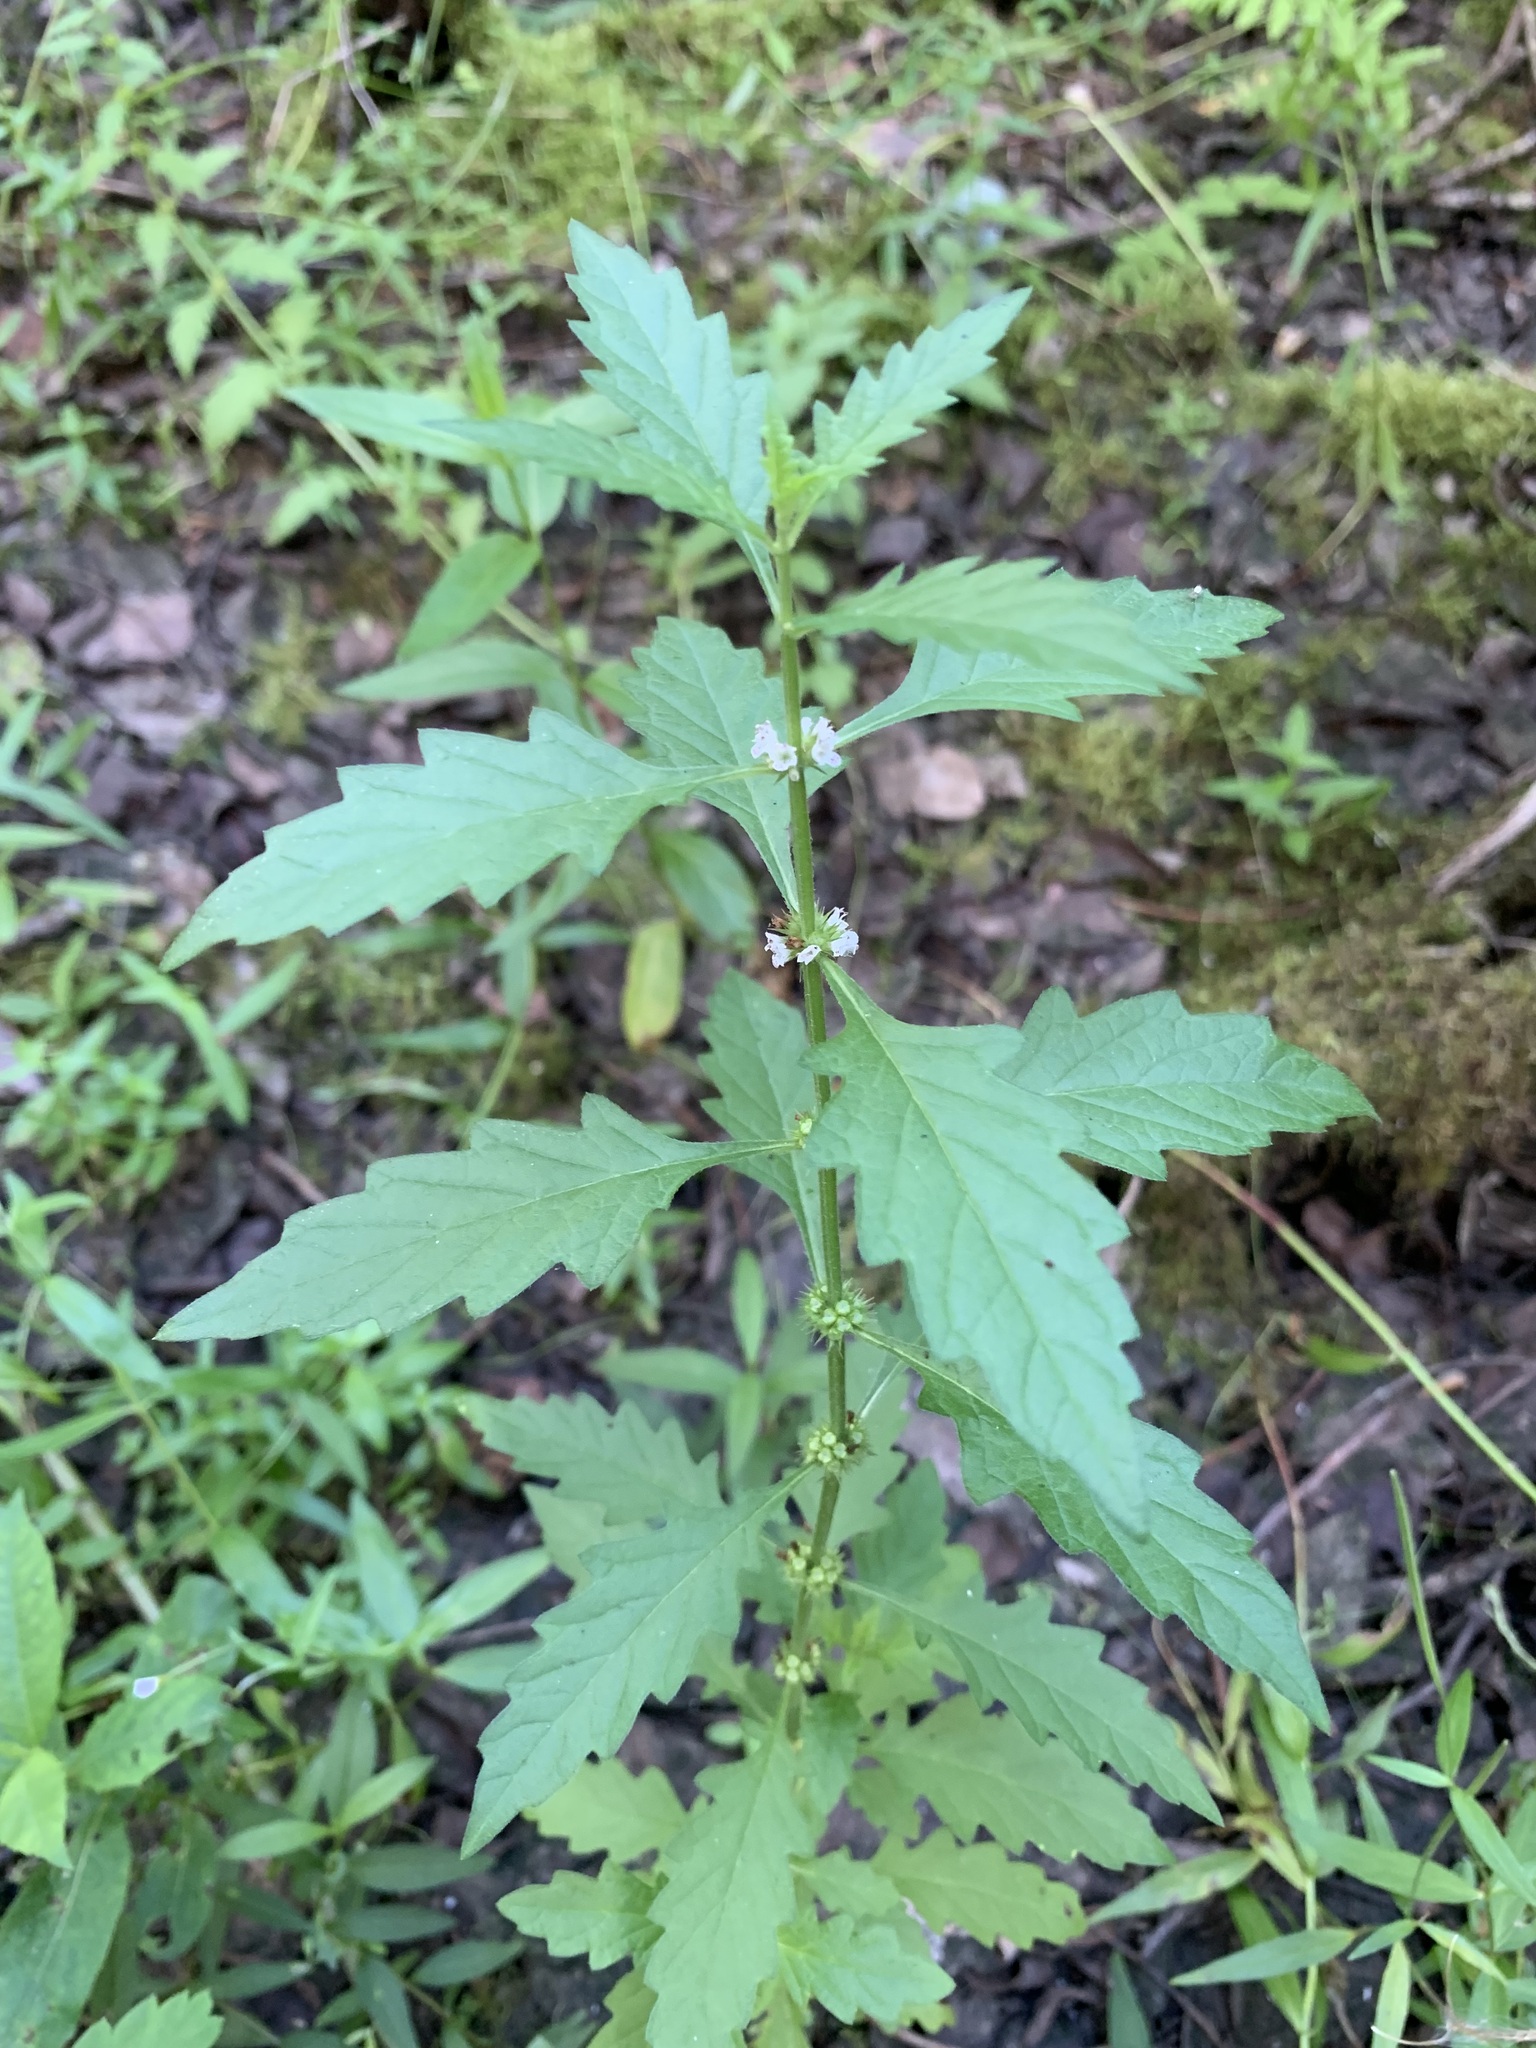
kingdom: Plantae
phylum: Tracheophyta
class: Magnoliopsida
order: Lamiales
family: Lamiaceae
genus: Lycopus
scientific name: Lycopus europaeus
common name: European bugleweed
